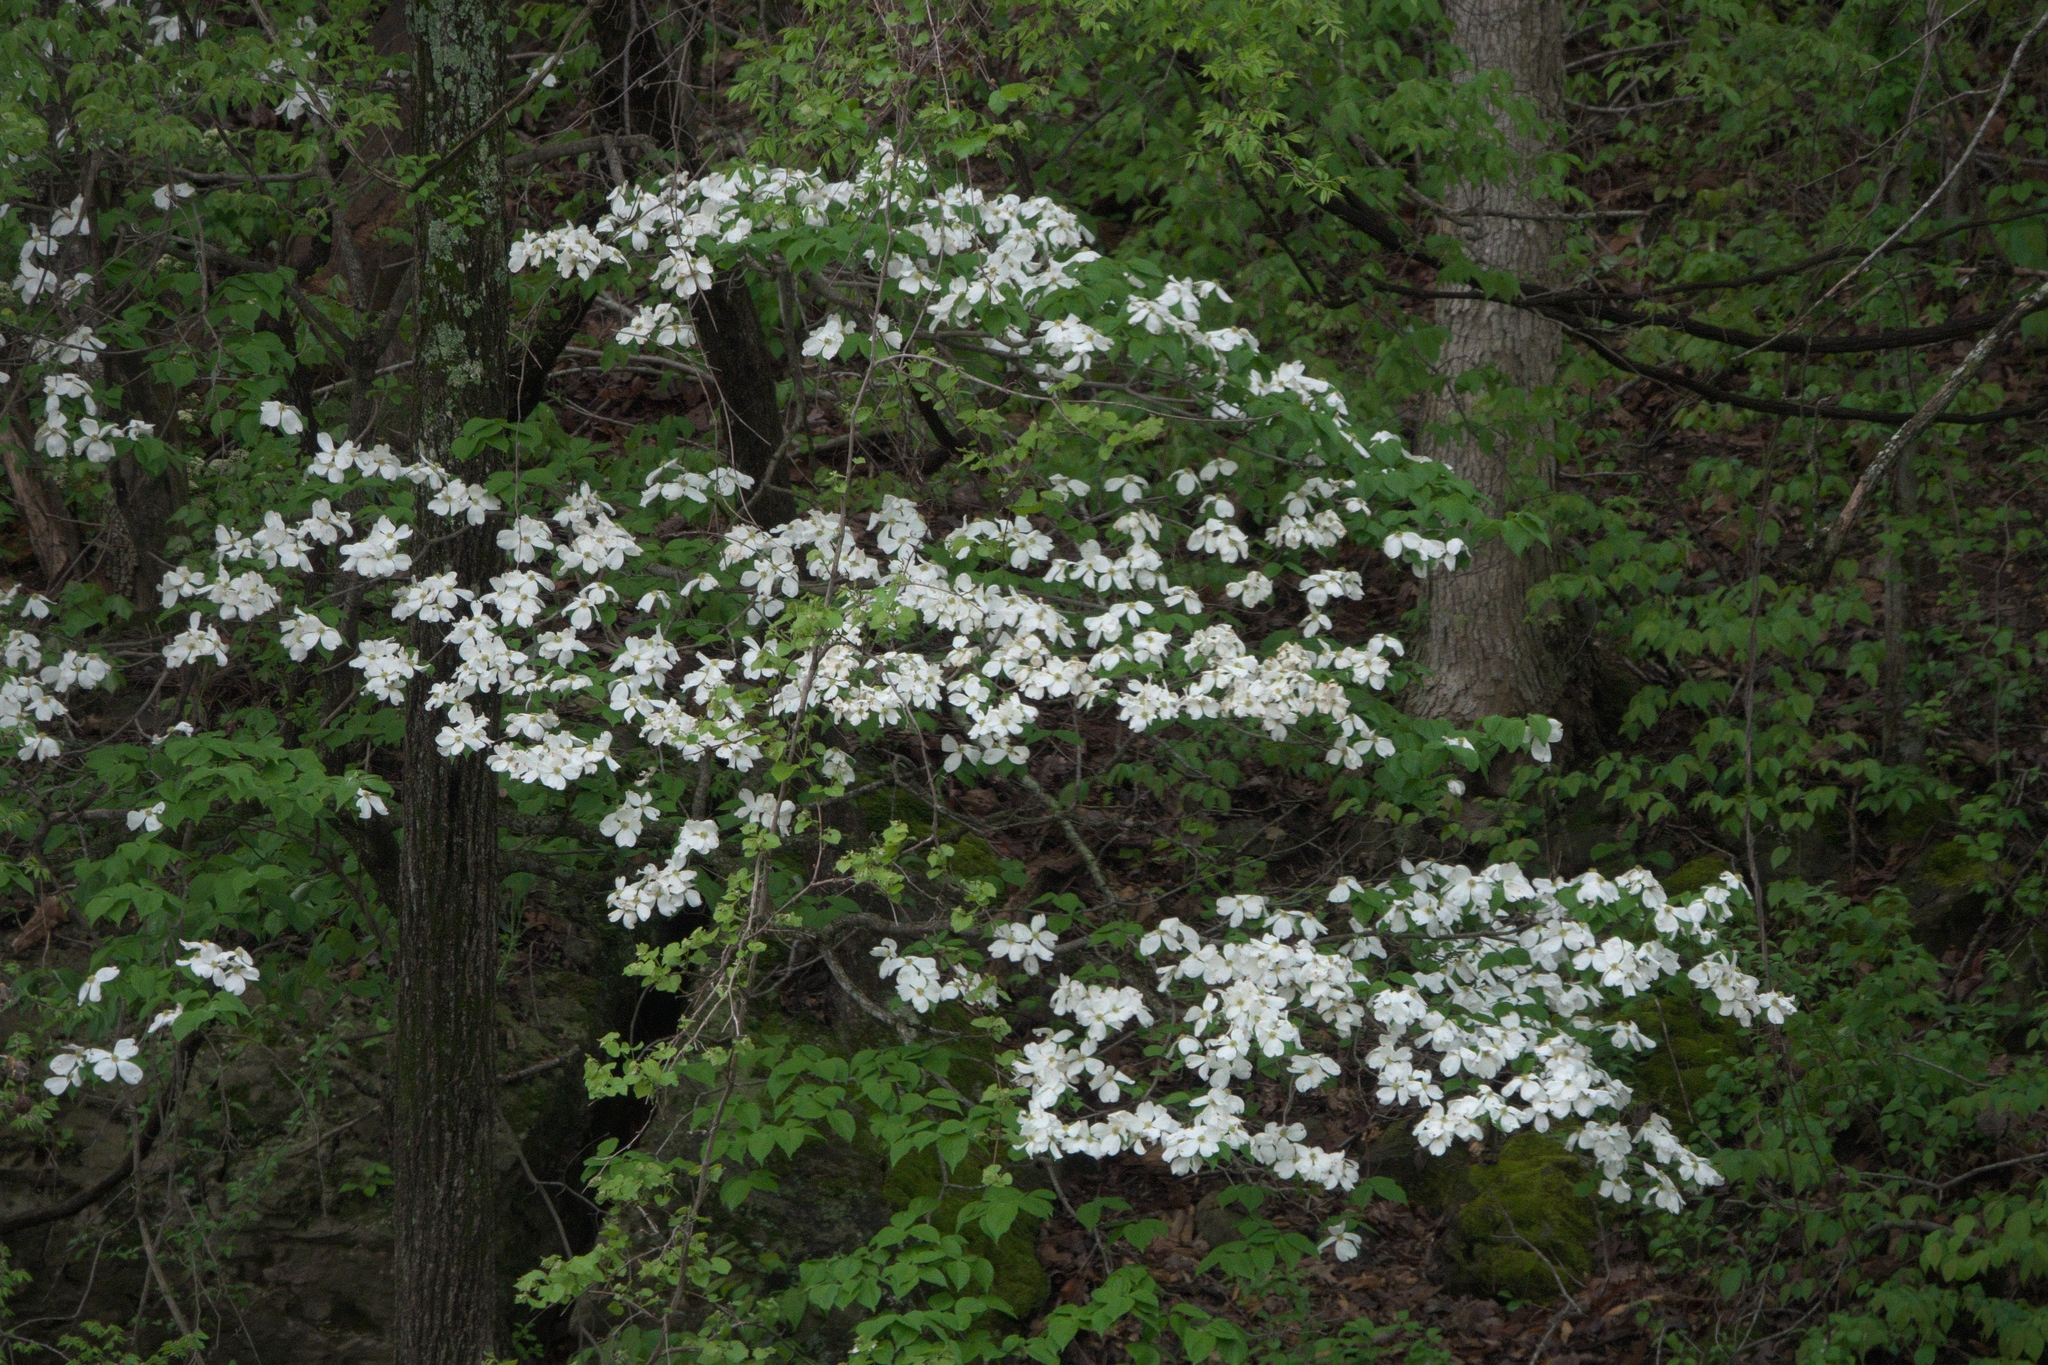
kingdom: Plantae
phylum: Tracheophyta
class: Magnoliopsida
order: Cornales
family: Cornaceae
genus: Cornus
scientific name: Cornus florida
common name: Flowering dogwood
